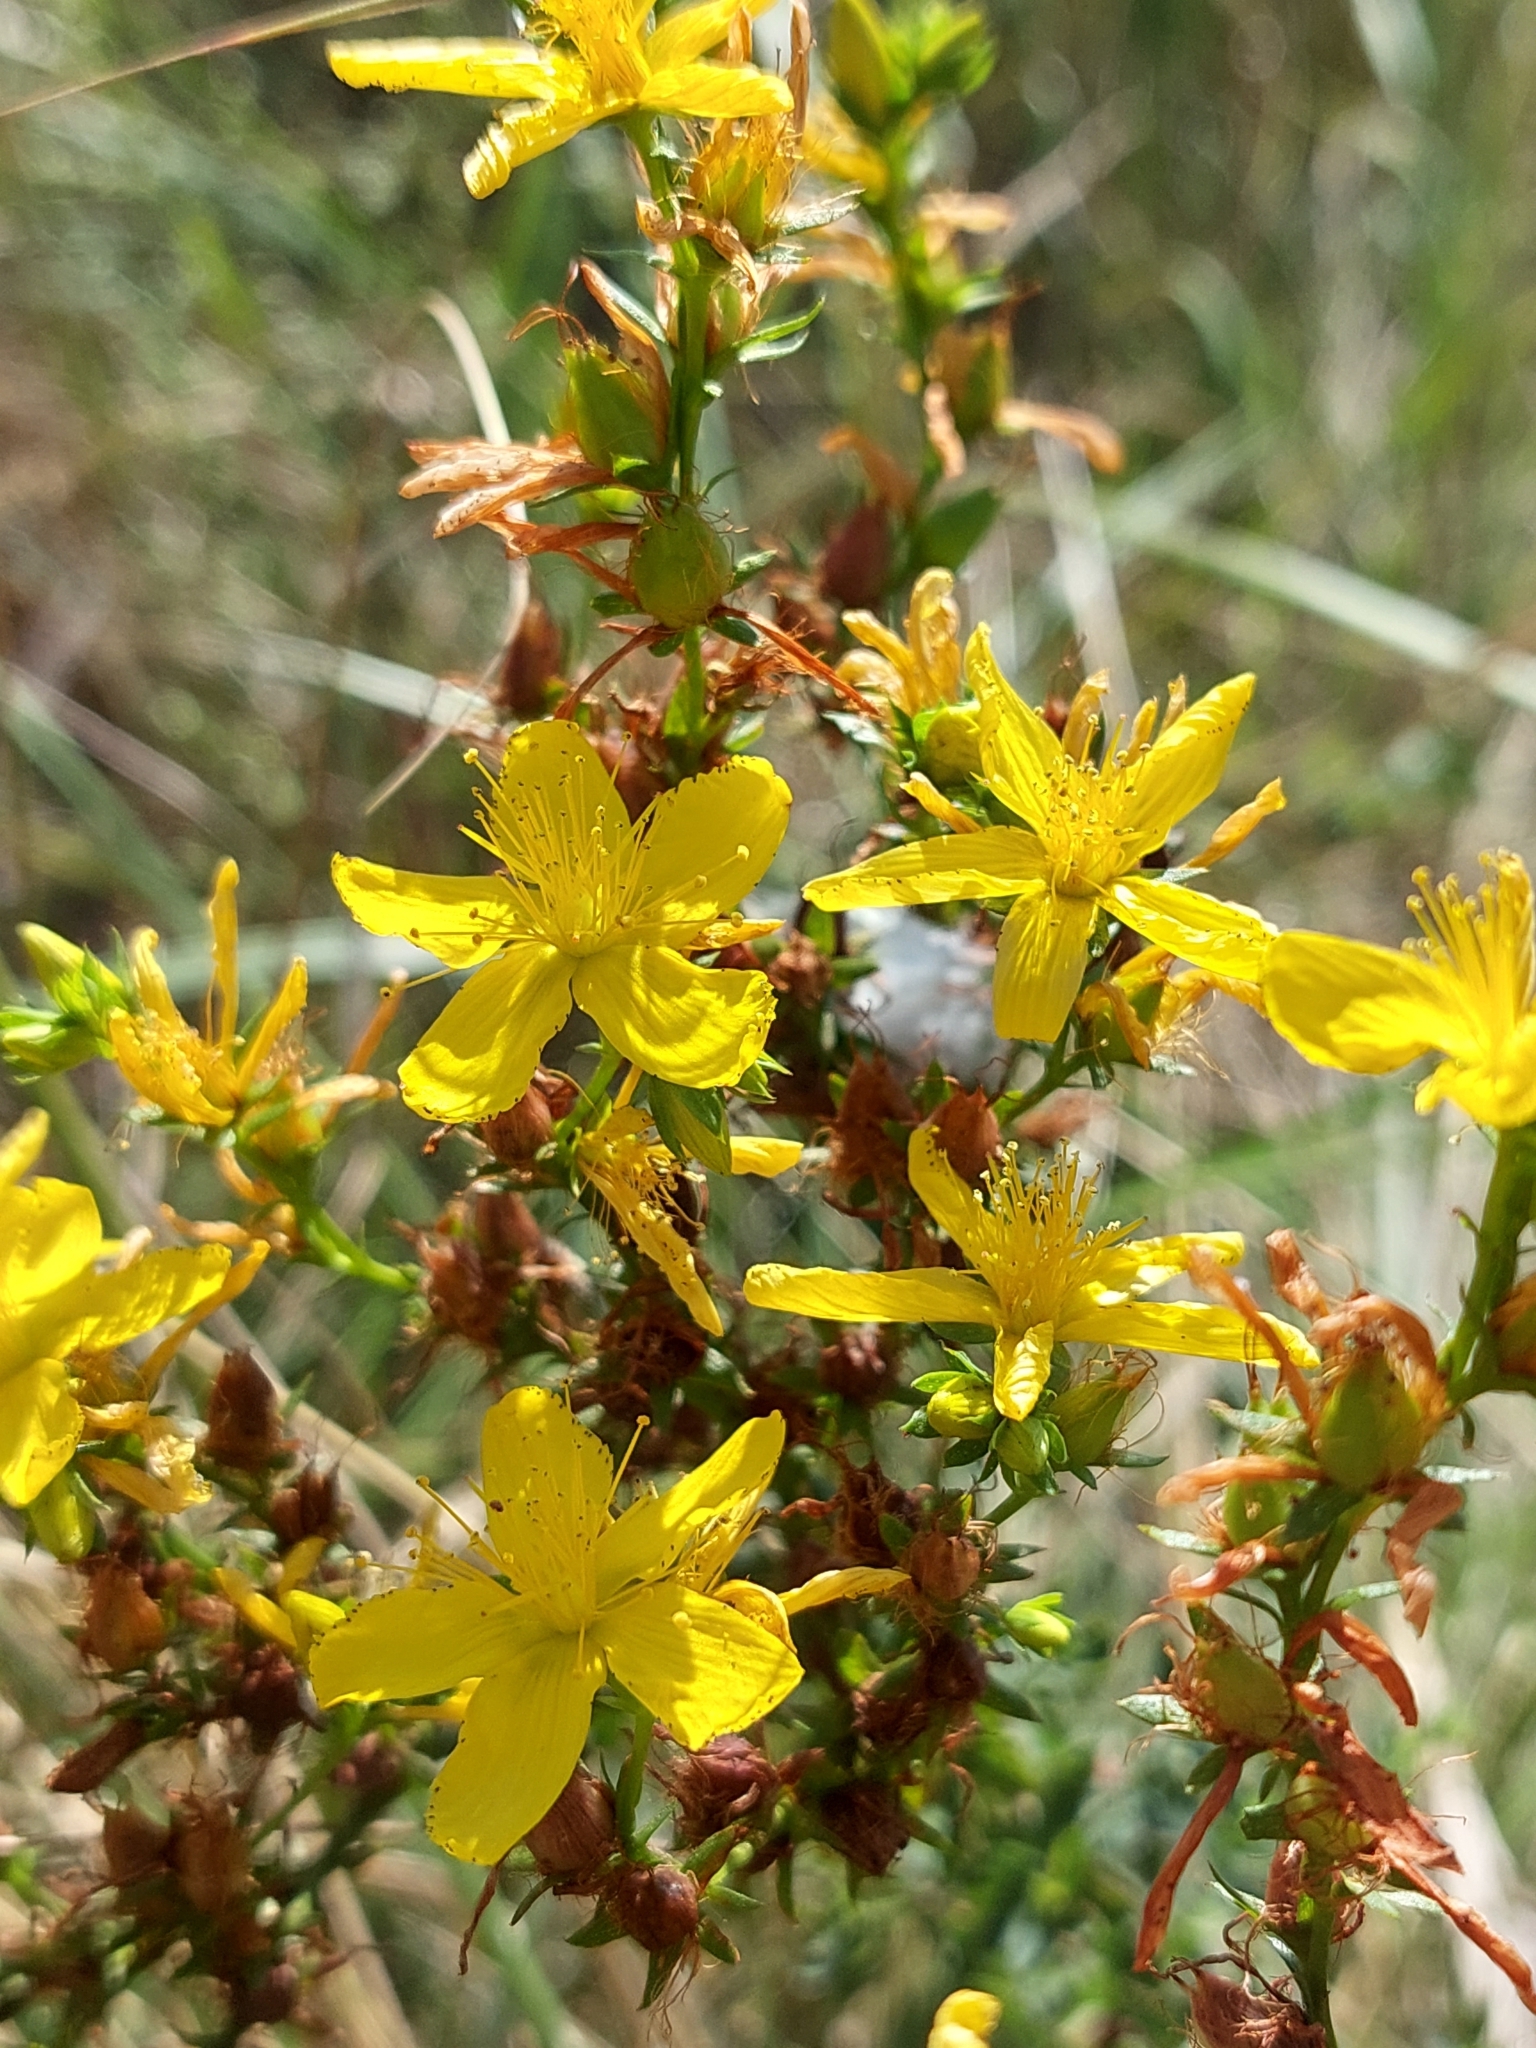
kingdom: Plantae
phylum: Tracheophyta
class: Magnoliopsida
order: Malpighiales
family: Hypericaceae
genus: Hypericum
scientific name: Hypericum perforatum
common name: Common st. johnswort
